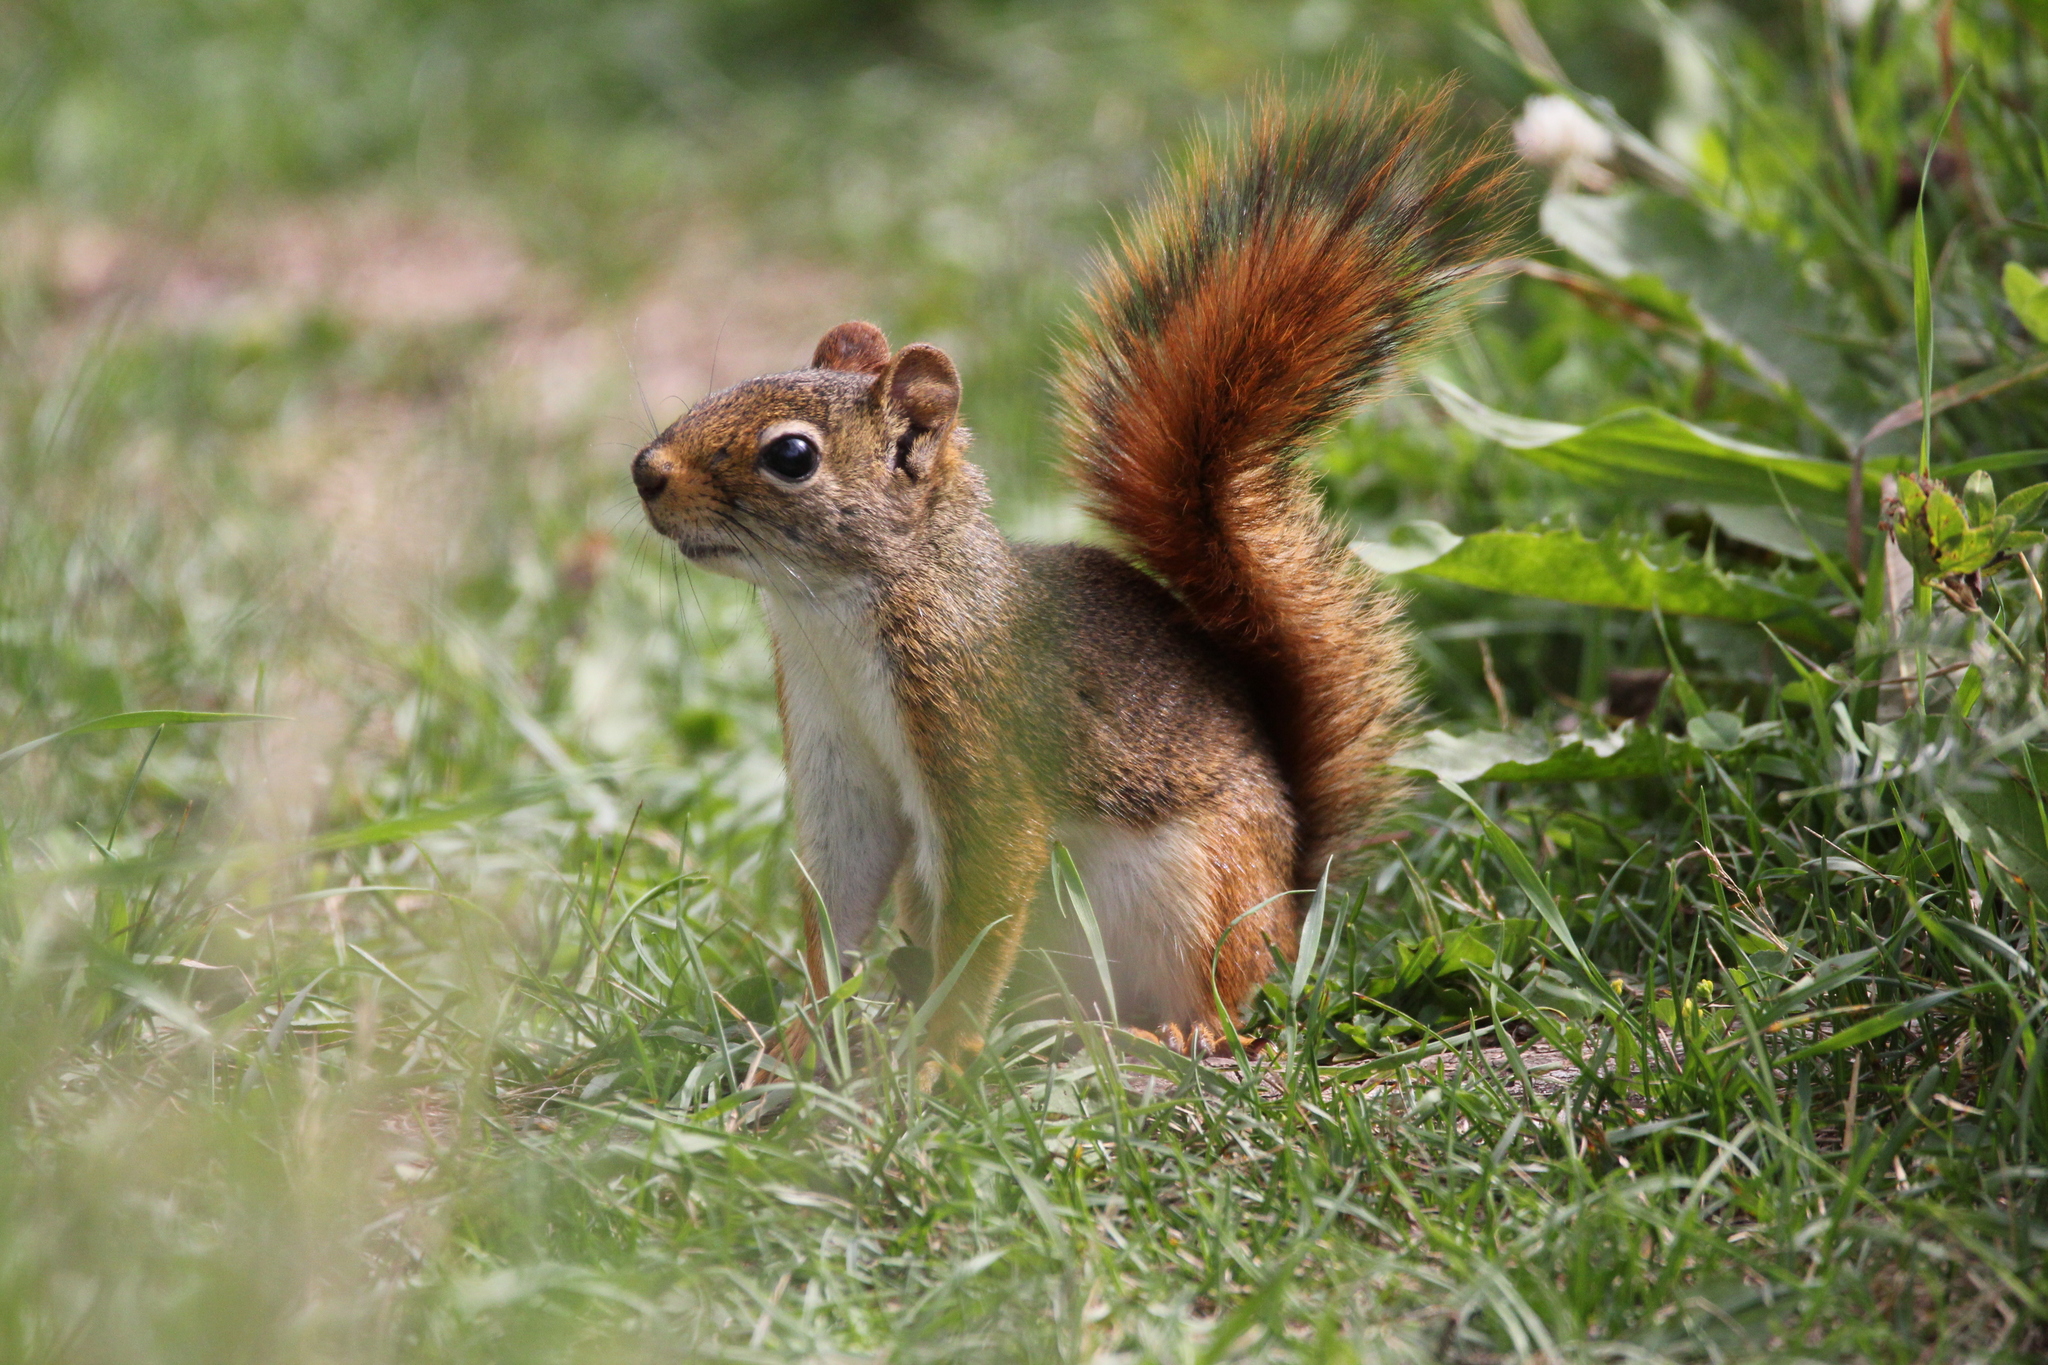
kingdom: Animalia
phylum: Chordata
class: Mammalia
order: Rodentia
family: Sciuridae
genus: Tamiasciurus
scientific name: Tamiasciurus hudsonicus
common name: Red squirrel
